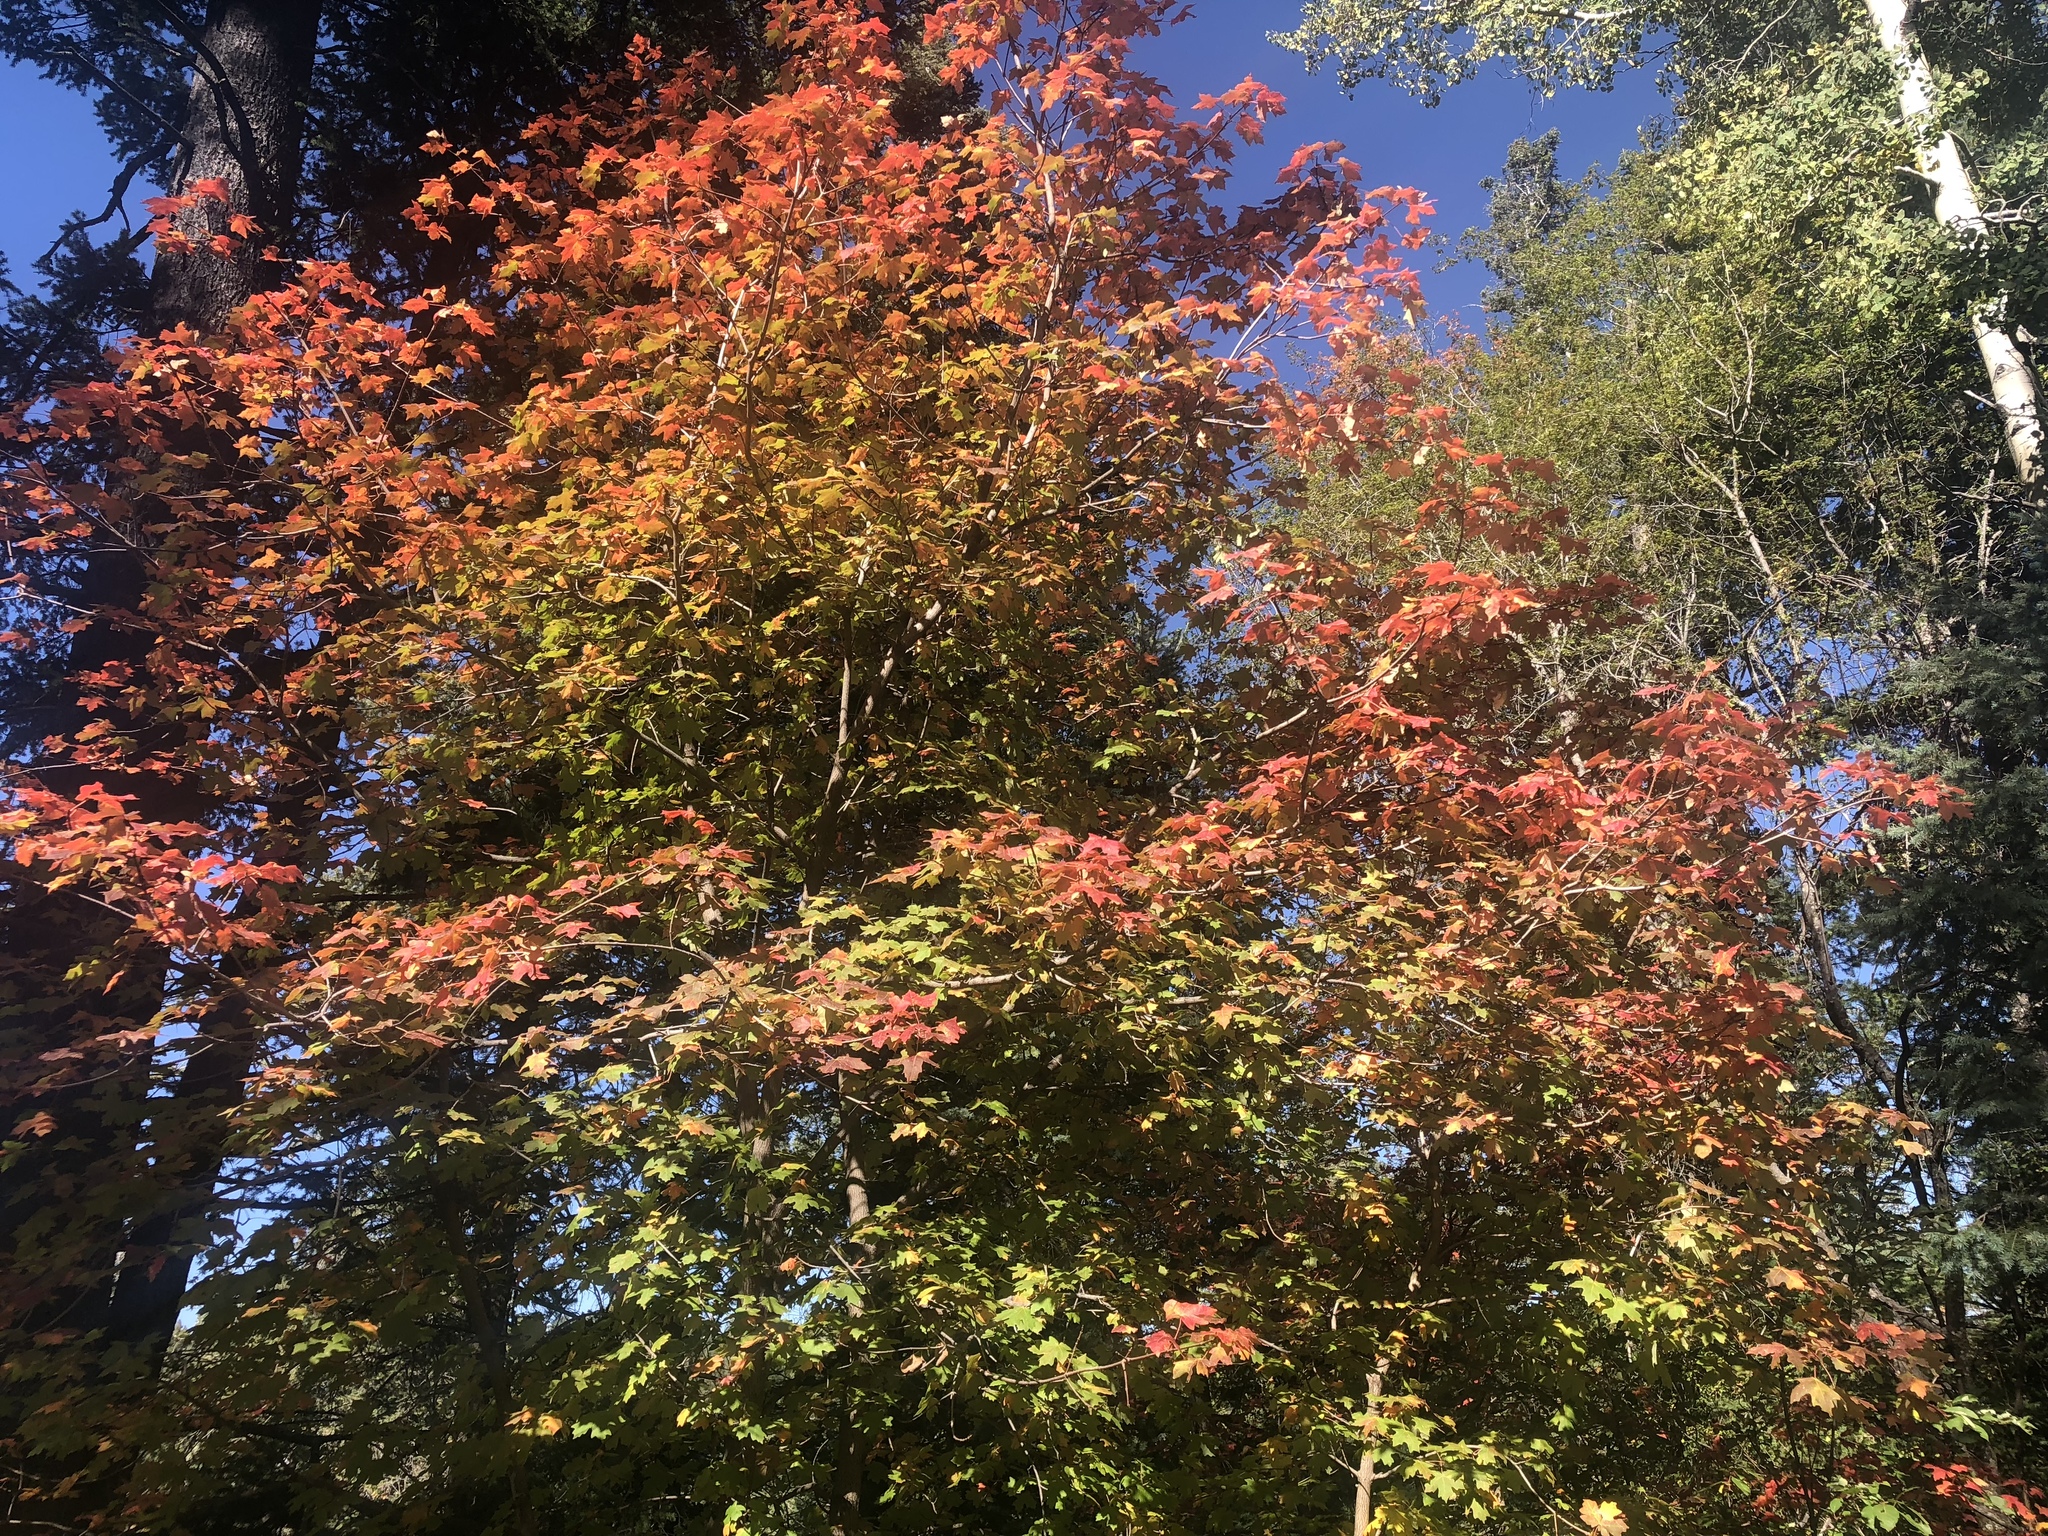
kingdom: Plantae
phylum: Tracheophyta
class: Magnoliopsida
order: Sapindales
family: Sapindaceae
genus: Acer
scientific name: Acer grandidentatum
